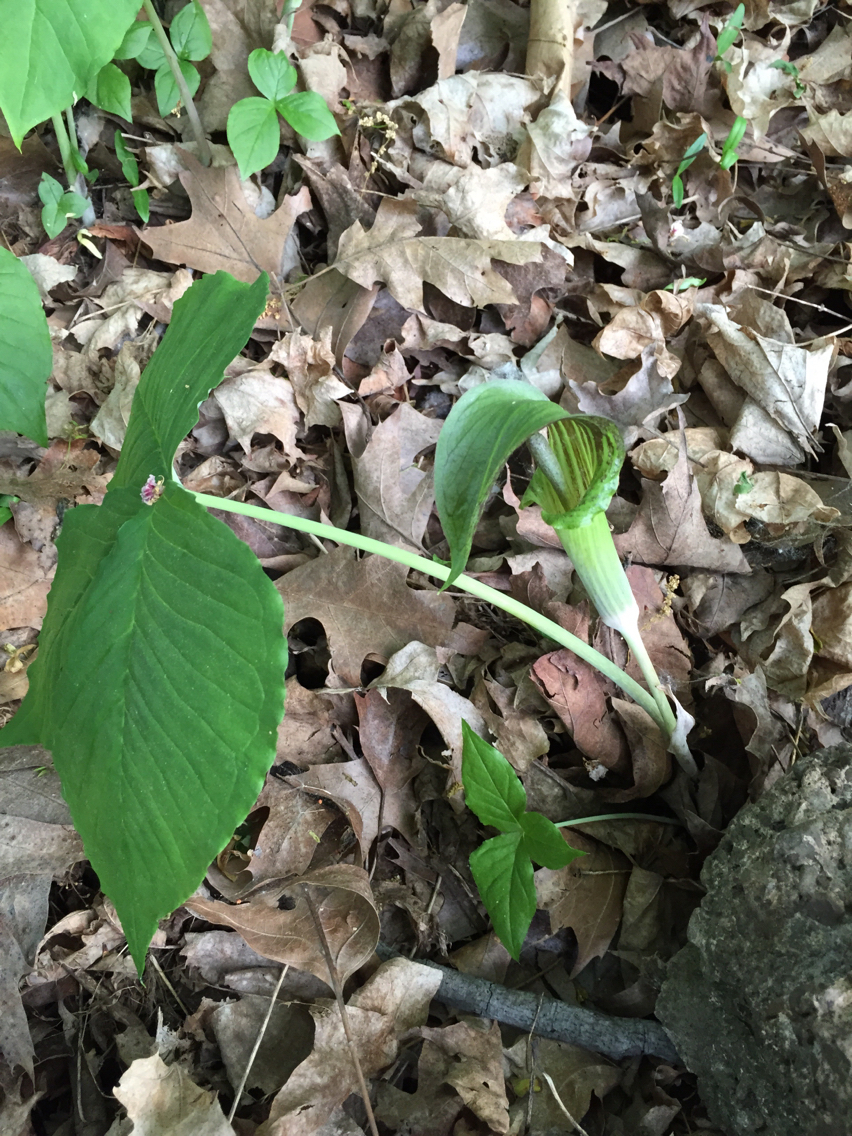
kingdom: Plantae
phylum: Tracheophyta
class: Liliopsida
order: Alismatales
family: Araceae
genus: Arisaema
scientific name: Arisaema triphyllum
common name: Jack-in-the-pulpit
